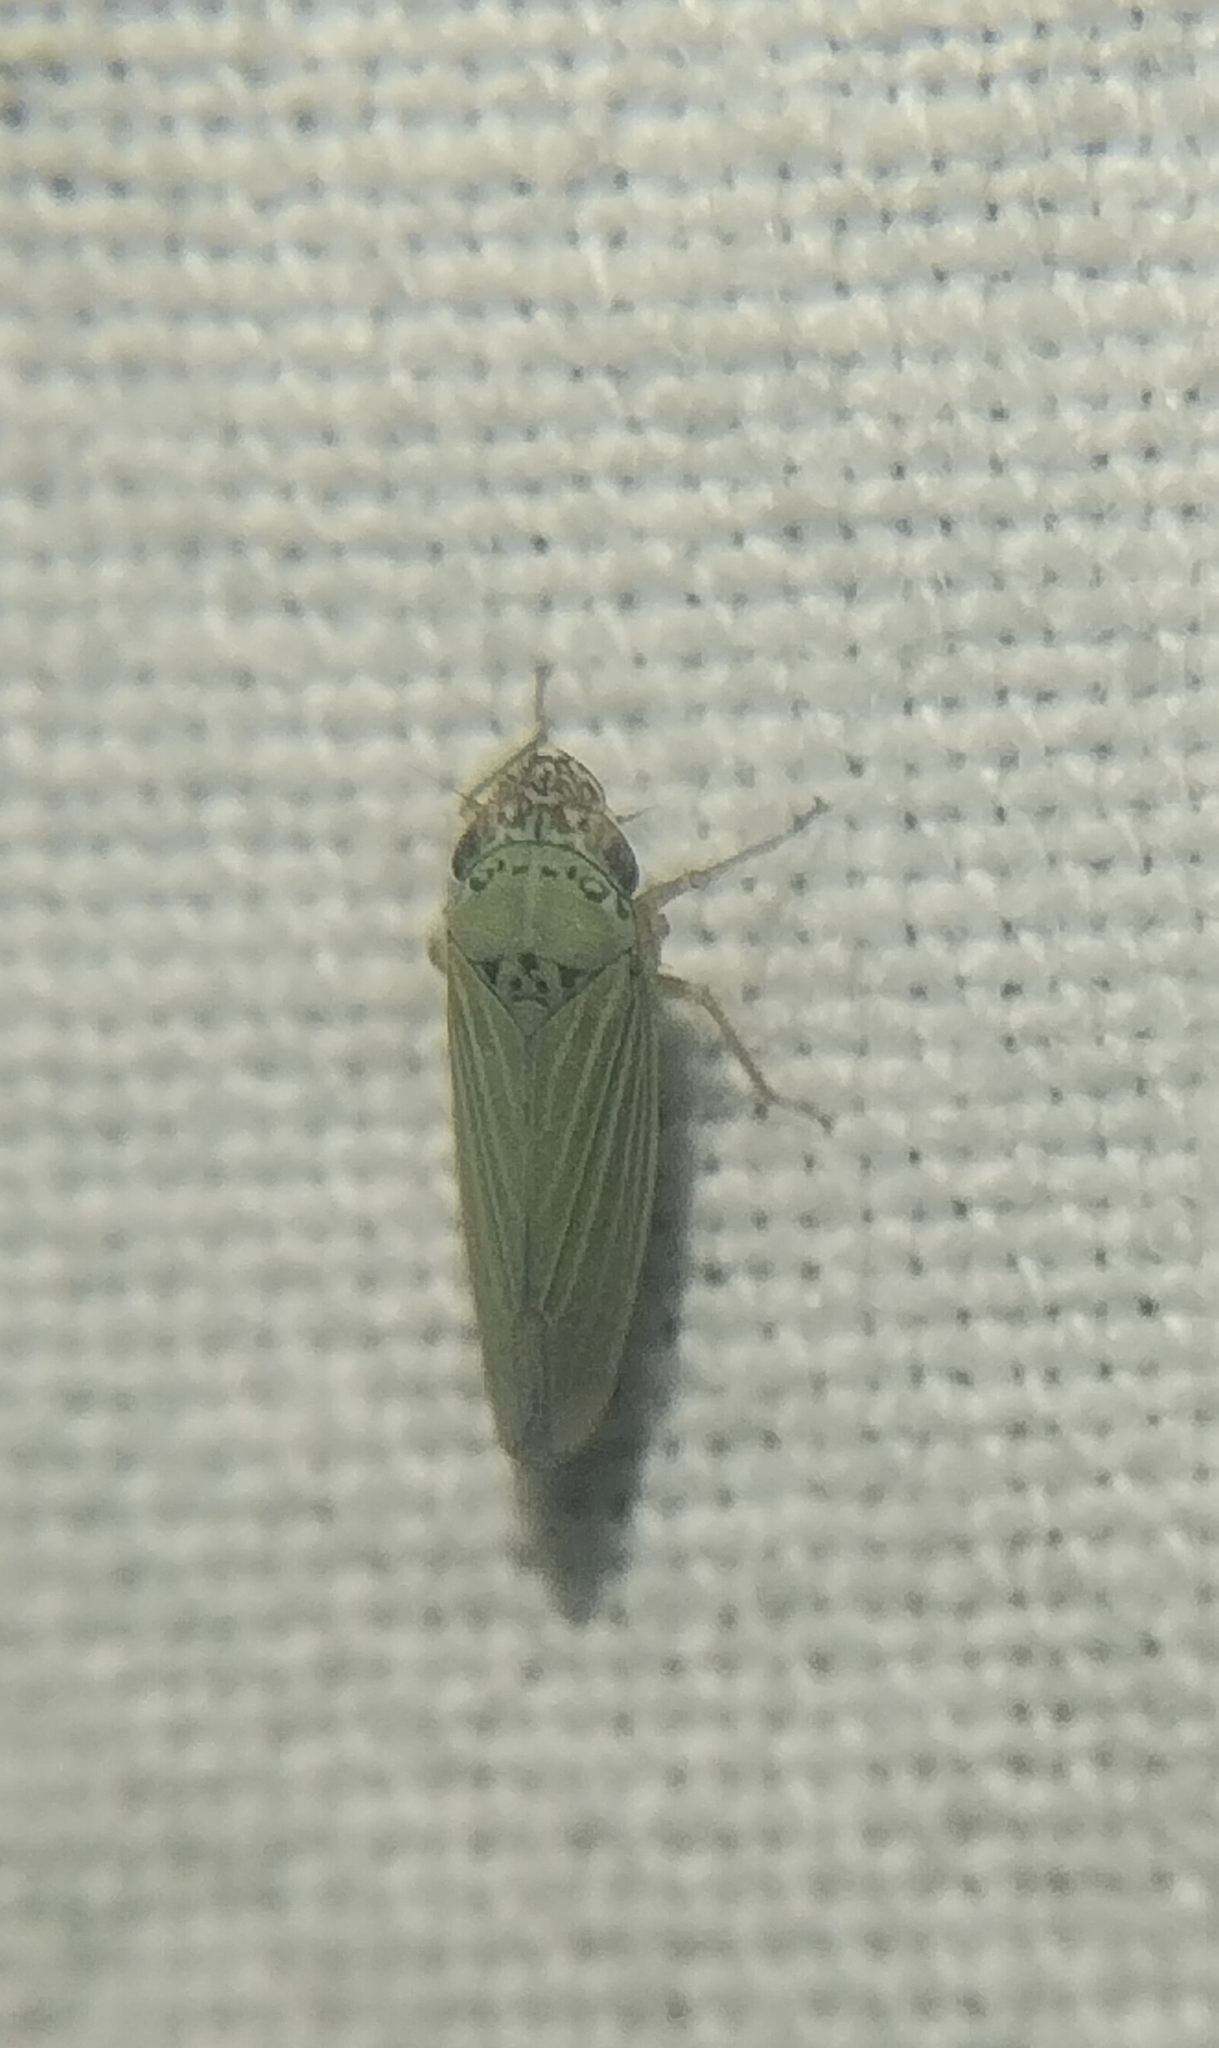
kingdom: Animalia
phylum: Arthropoda
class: Insecta
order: Hemiptera
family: Cicadellidae
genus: Xyphon
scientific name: Xyphon reticulatum
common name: Planthopper
